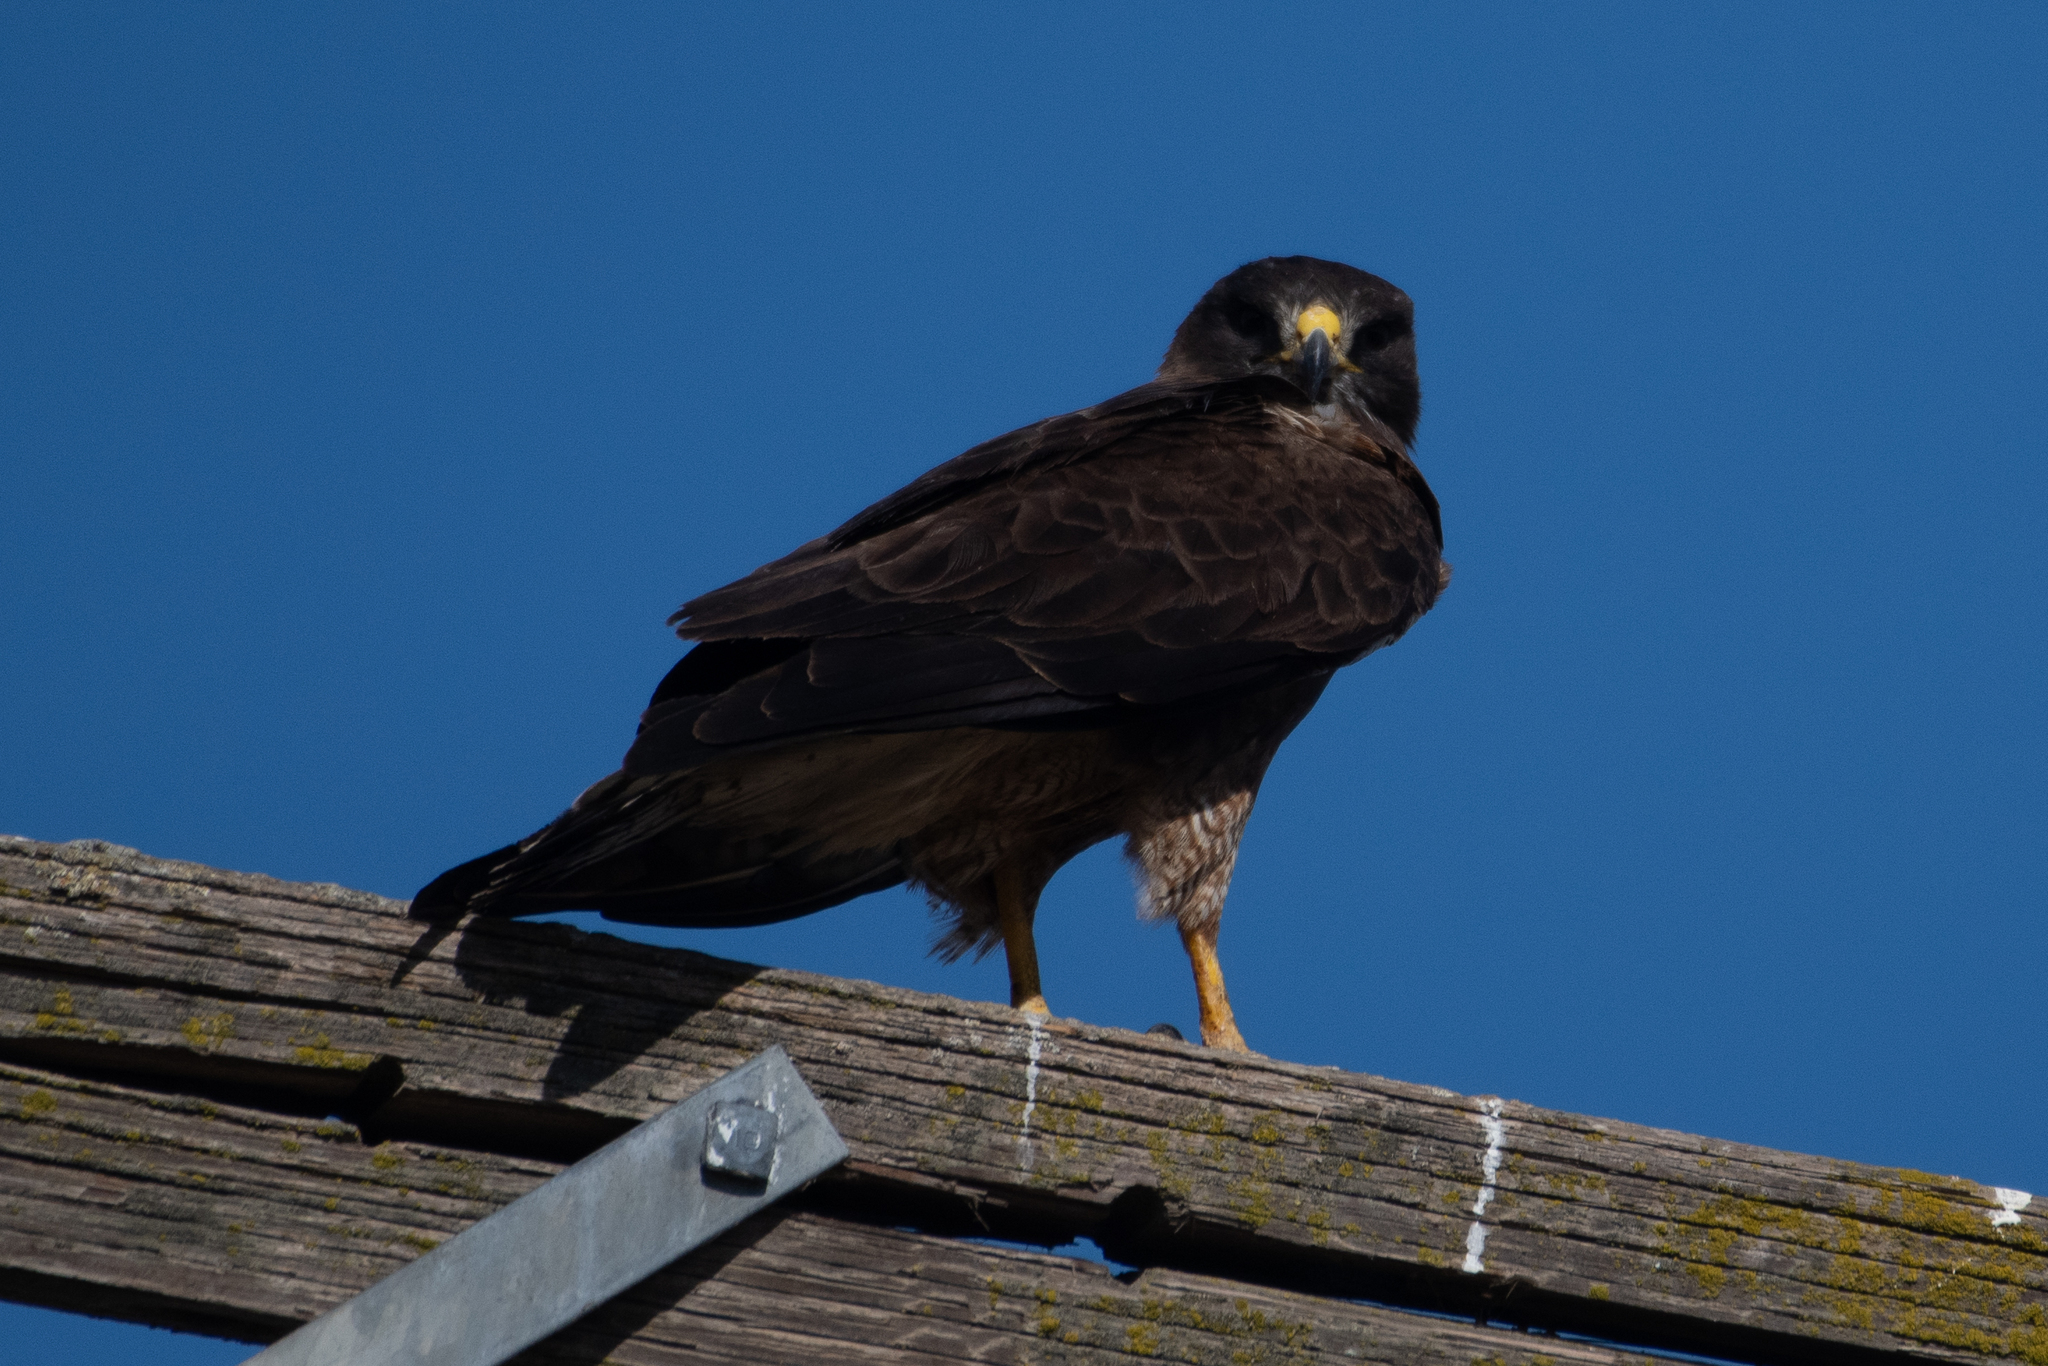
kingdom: Animalia
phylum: Chordata
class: Aves
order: Accipitriformes
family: Accipitridae
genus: Buteo
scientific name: Buteo swainsoni
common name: Swainson's hawk
